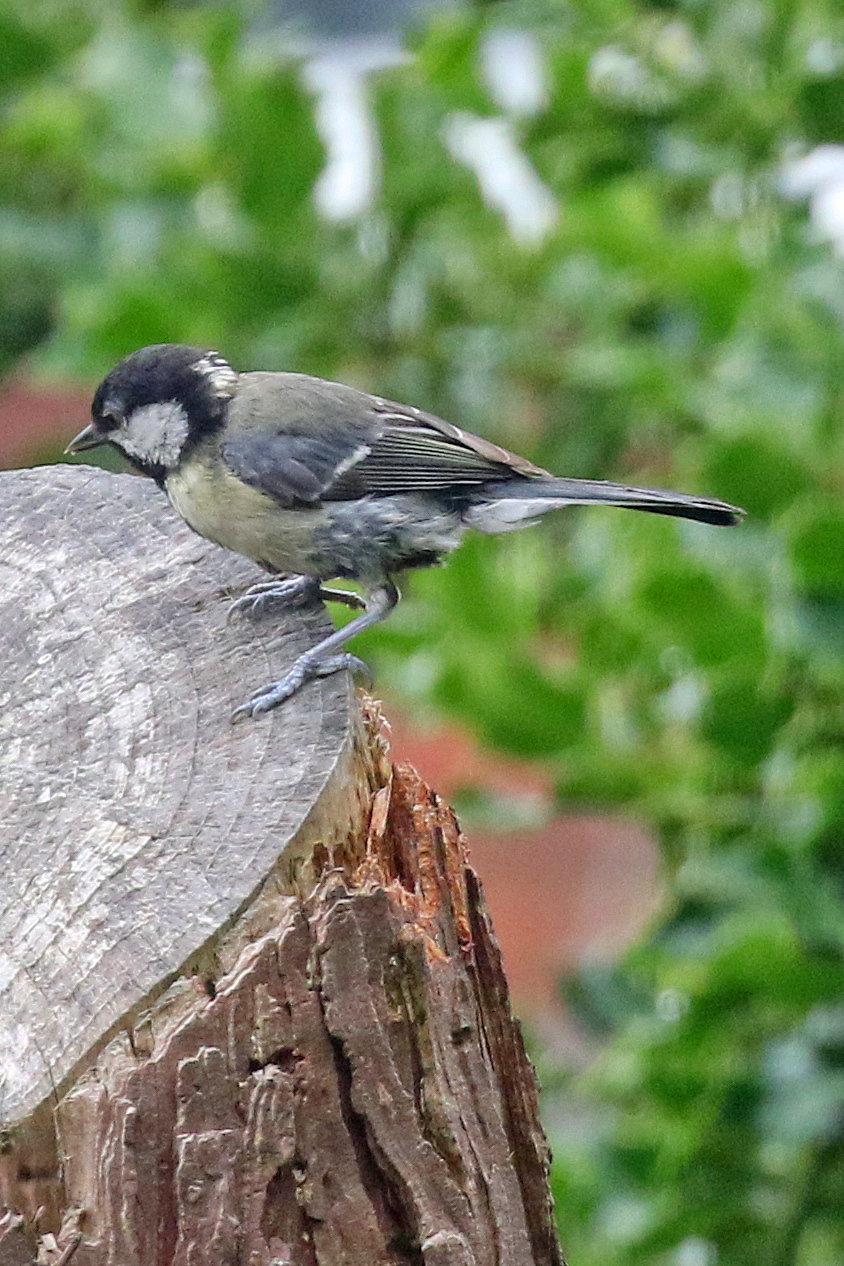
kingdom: Animalia
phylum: Chordata
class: Aves
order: Passeriformes
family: Paridae
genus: Parus
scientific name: Parus major
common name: Great tit
